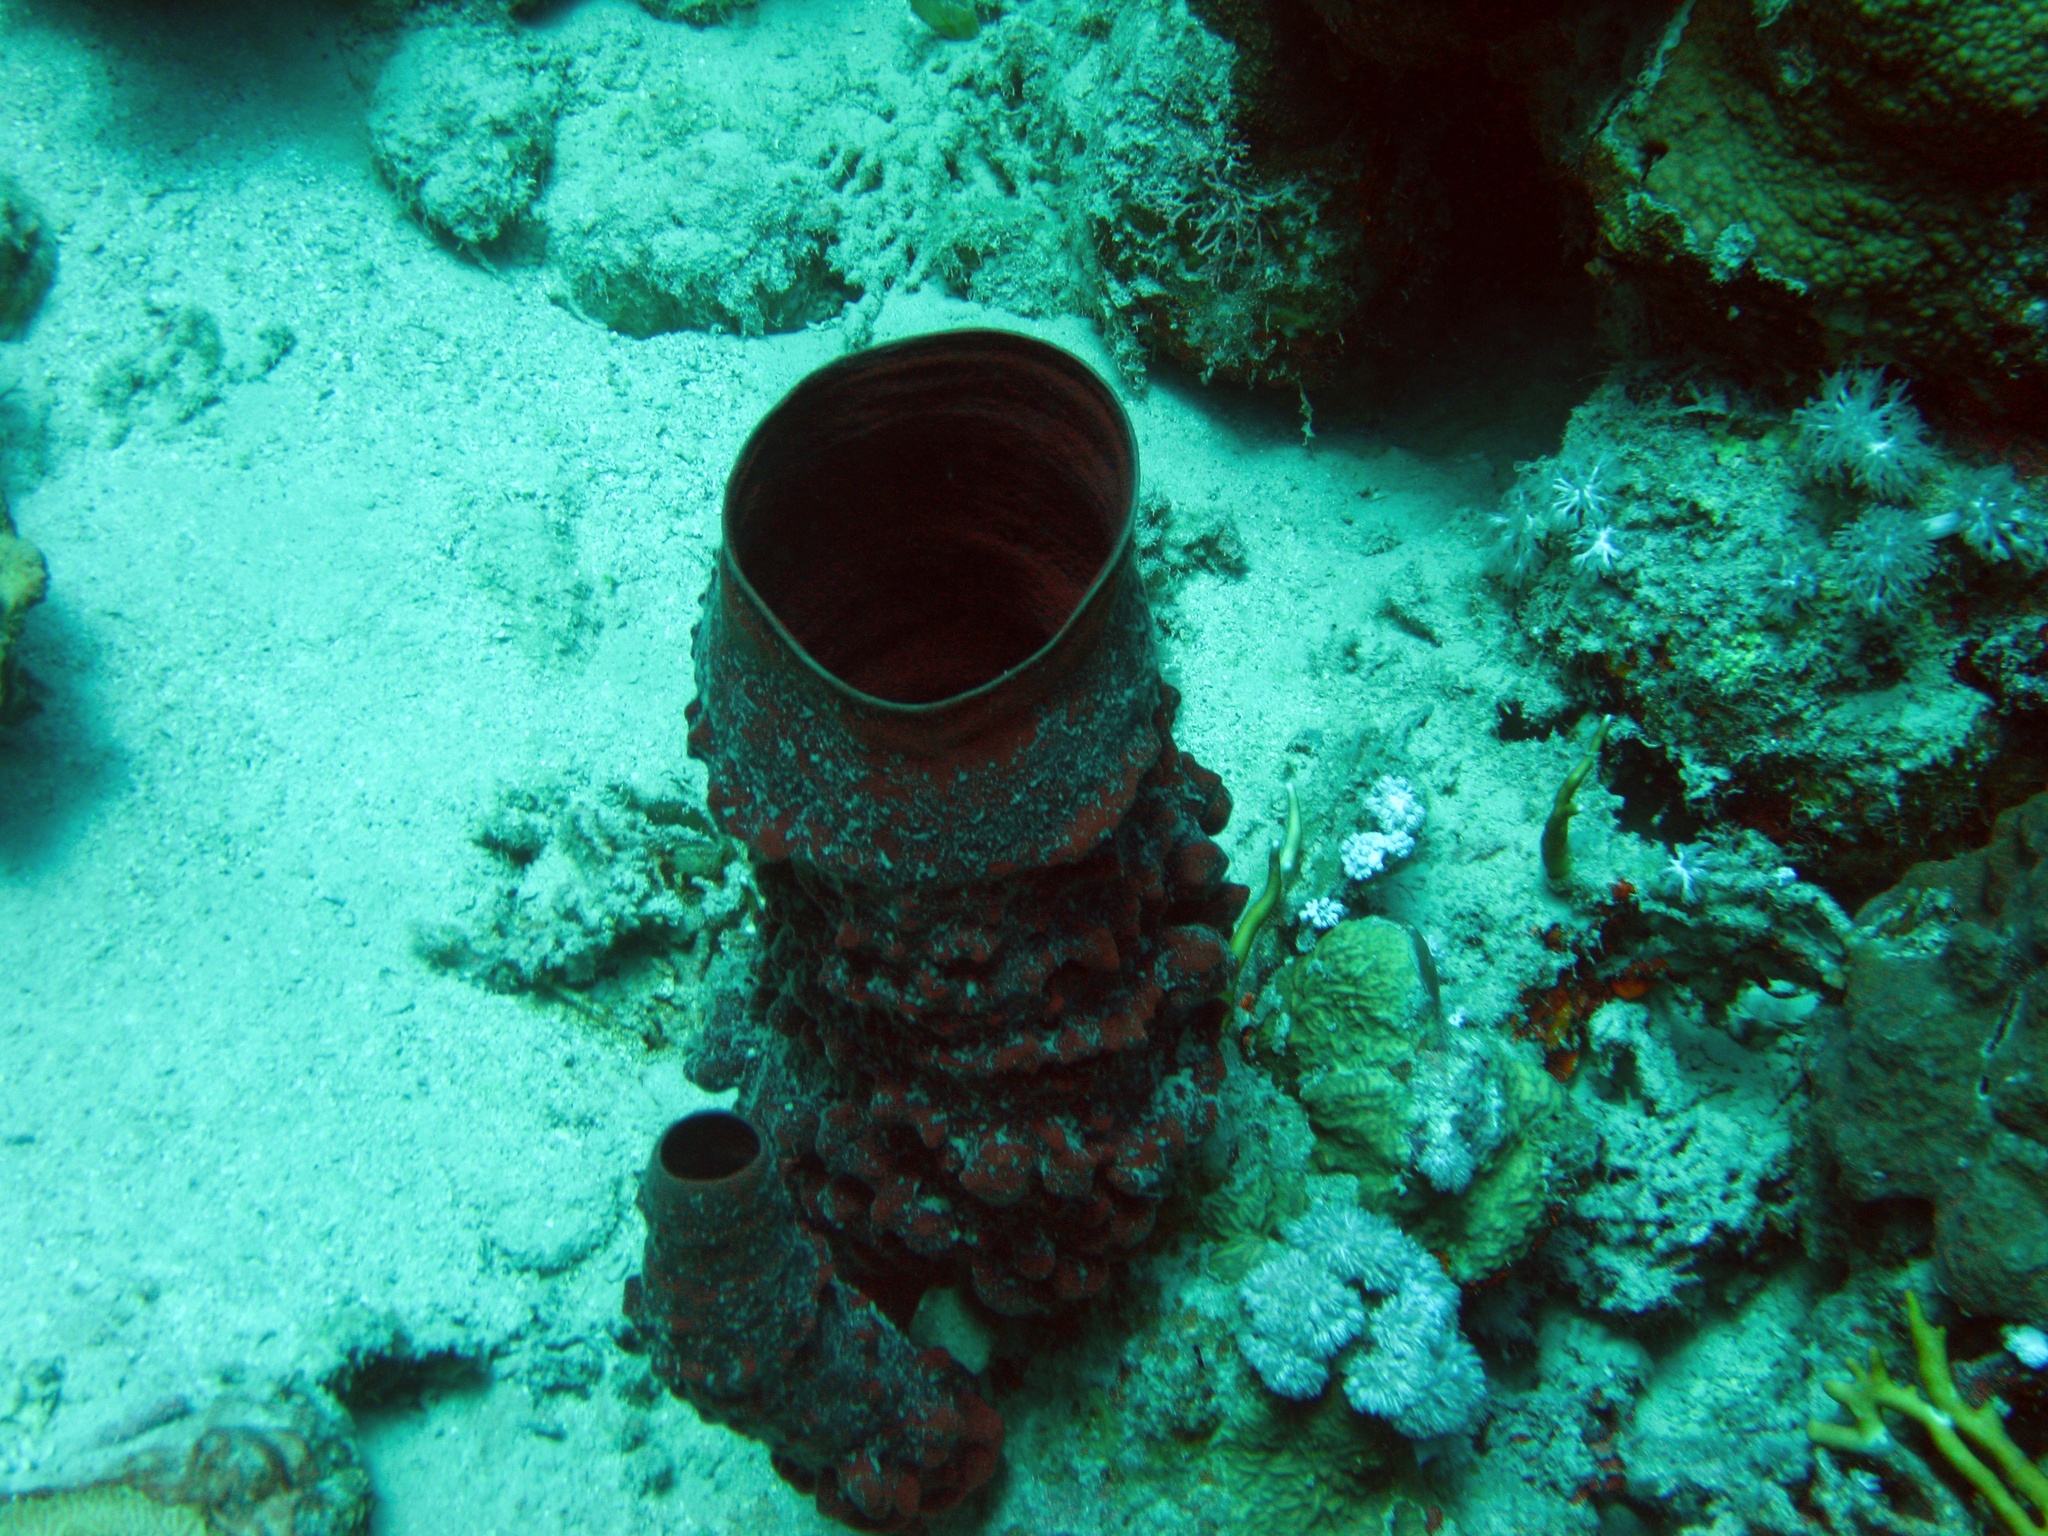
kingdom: Animalia
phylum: Porifera
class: Demospongiae
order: Haplosclerida
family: Callyspongiidae
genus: Callyspongia
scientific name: Callyspongia crassa
